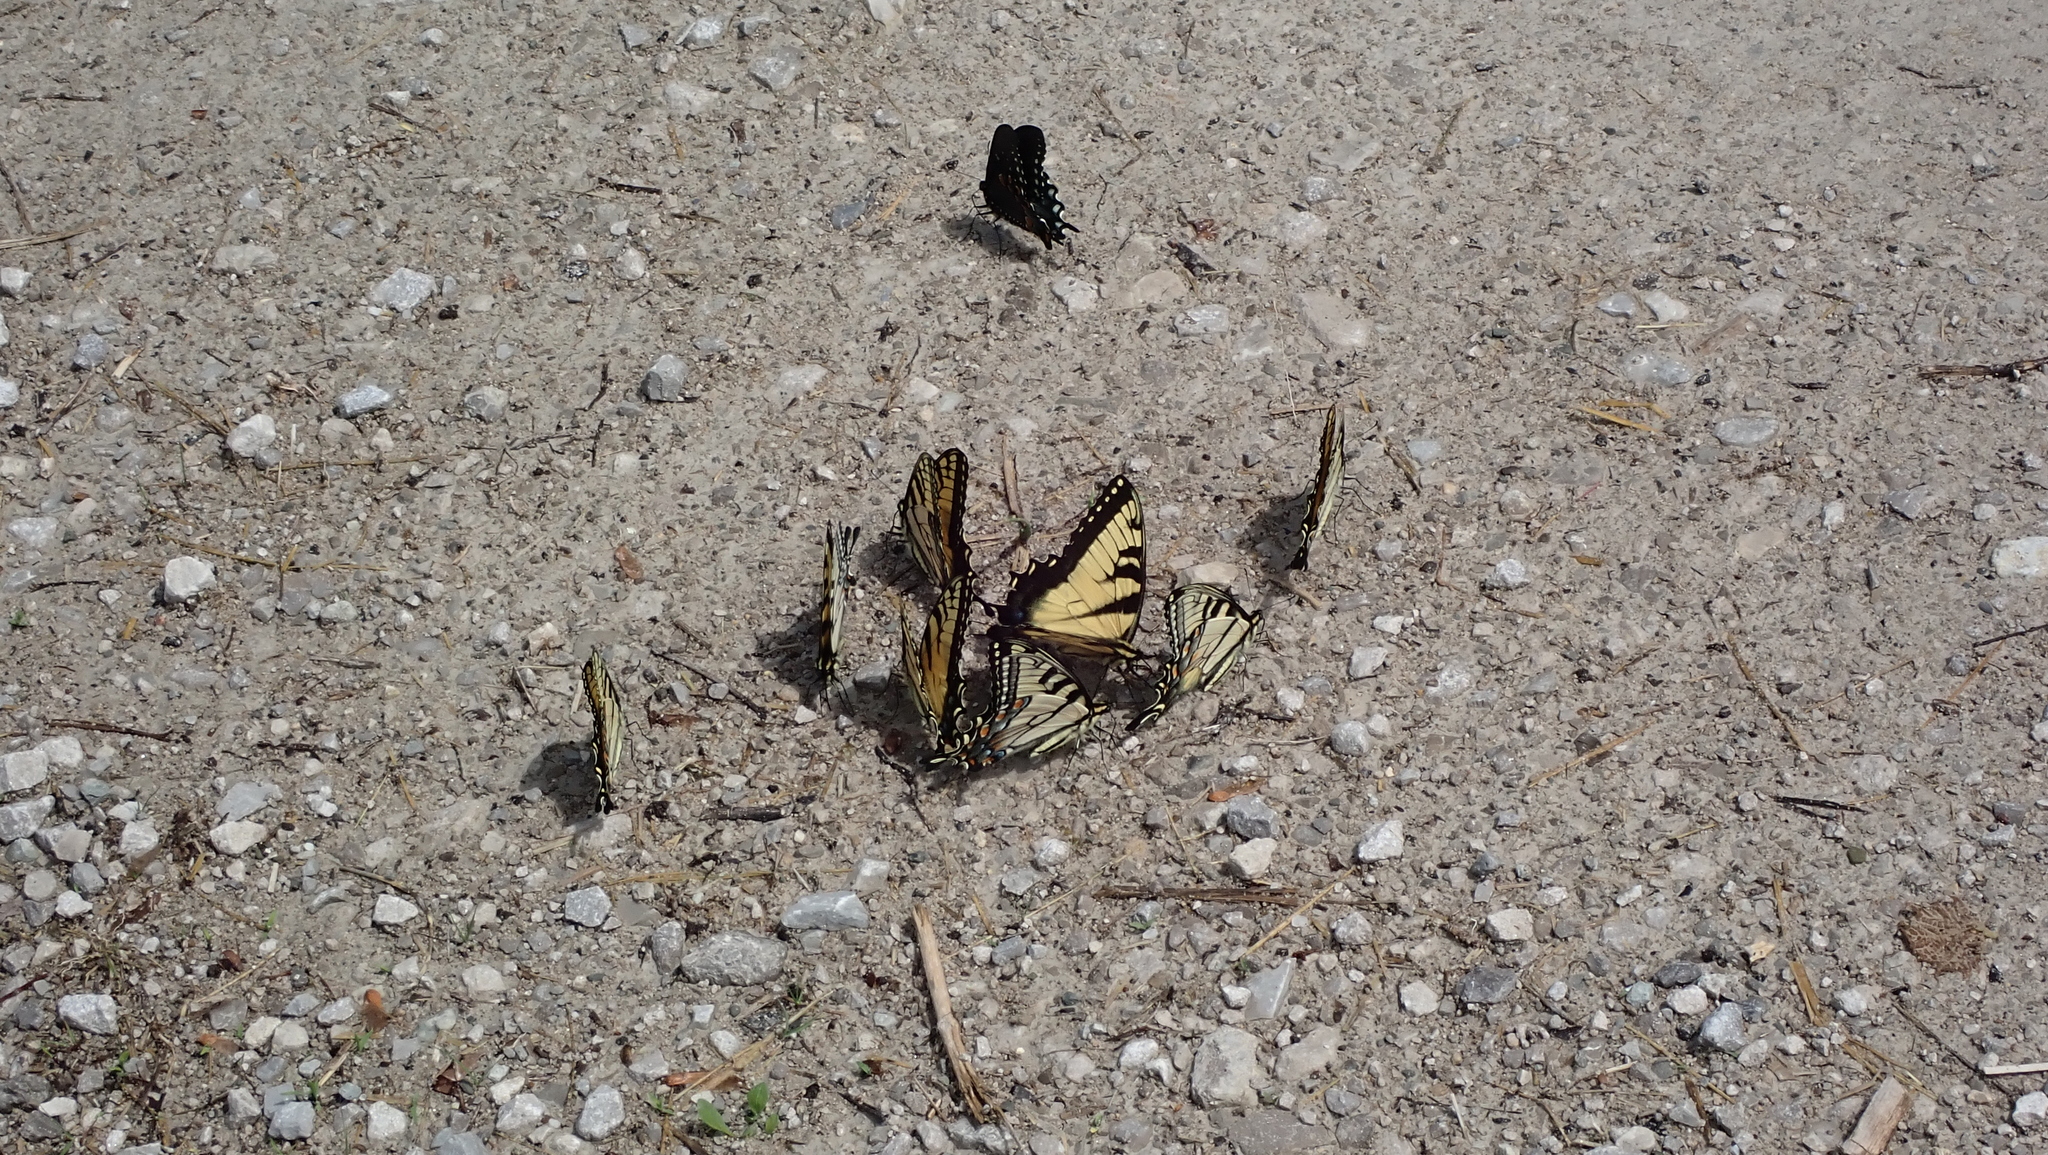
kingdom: Animalia
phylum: Arthropoda
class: Insecta
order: Lepidoptera
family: Papilionidae
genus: Papilio
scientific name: Papilio glaucus
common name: Tiger swallowtail
